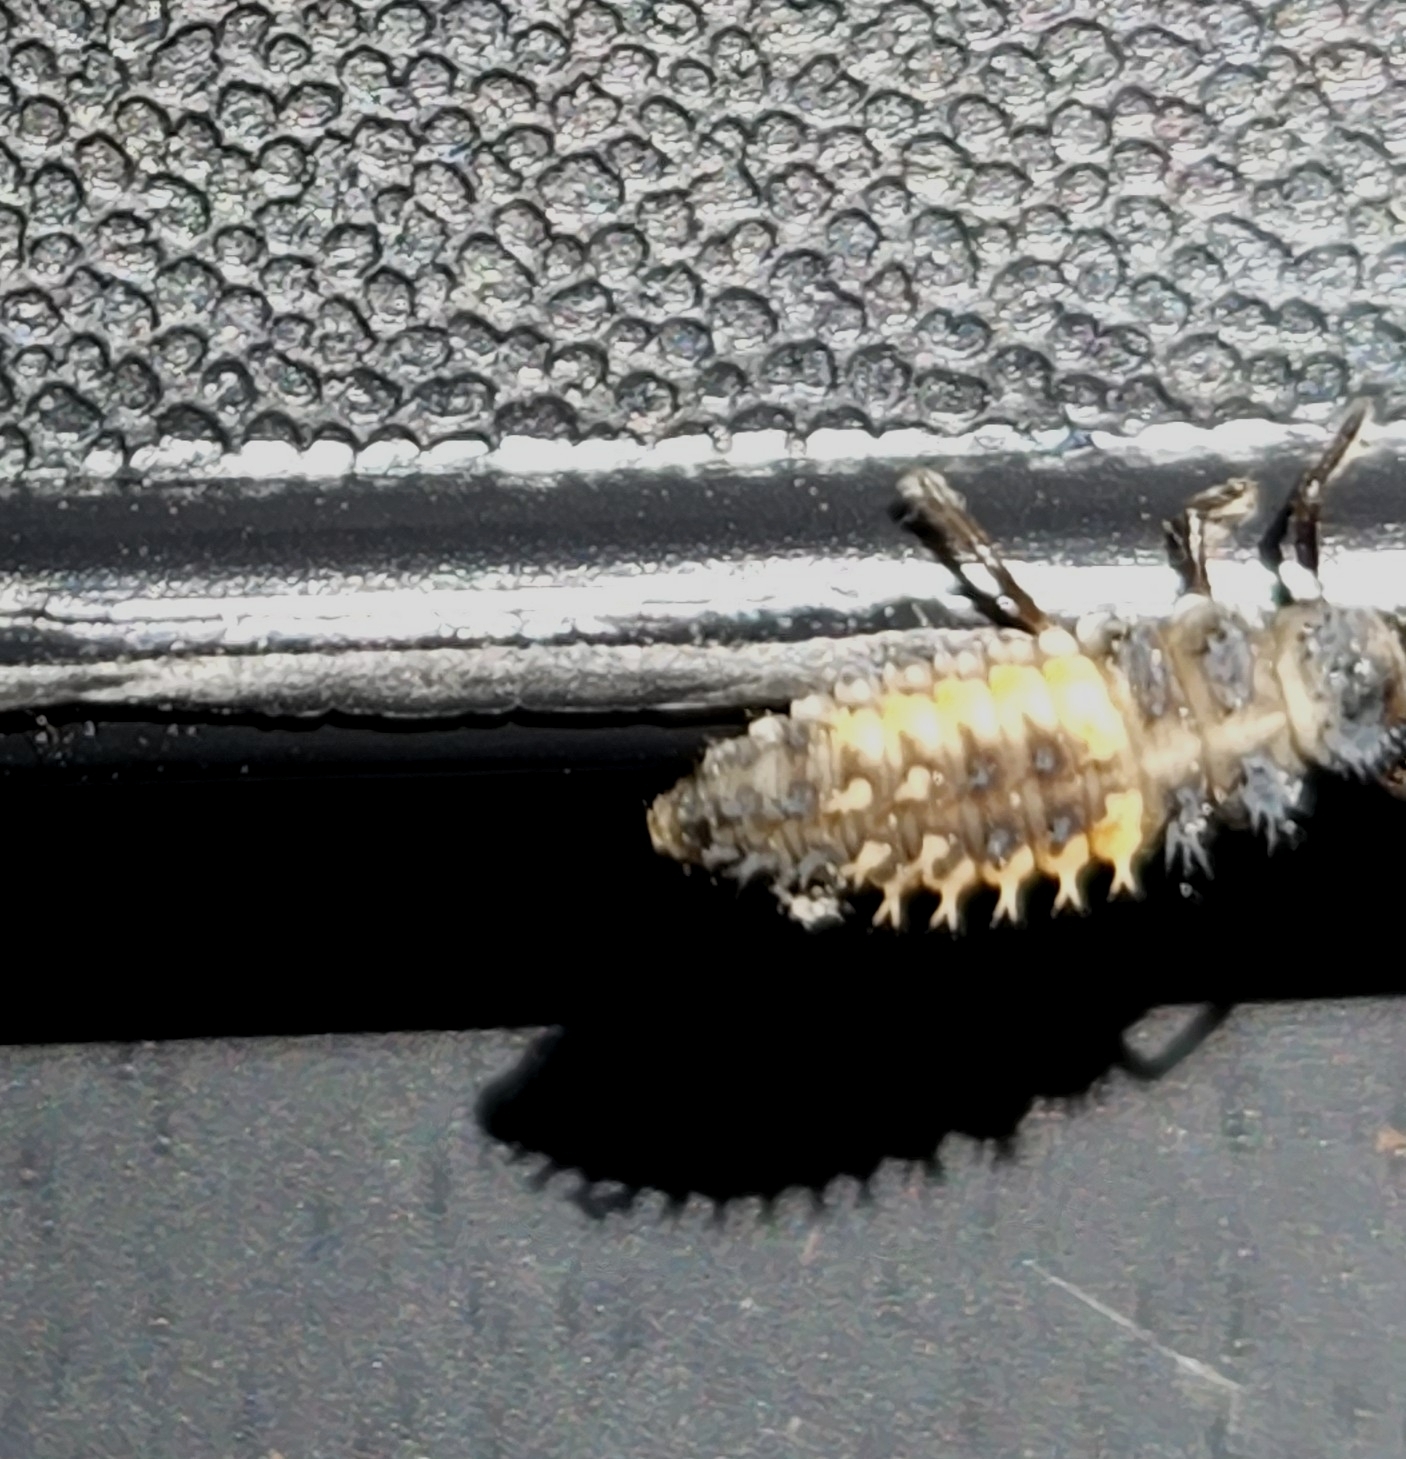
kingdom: Animalia
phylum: Arthropoda
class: Insecta
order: Coleoptera
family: Coccinellidae
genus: Harmonia
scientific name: Harmonia axyridis
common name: Harlequin ladybird
